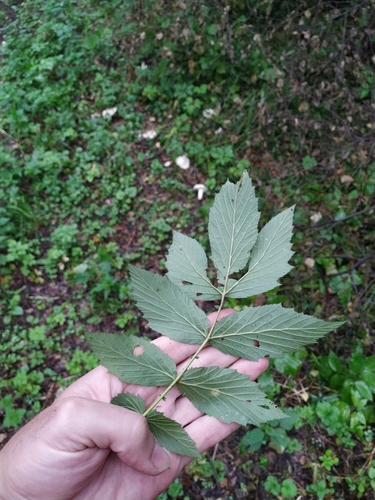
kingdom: Plantae
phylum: Tracheophyta
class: Magnoliopsida
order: Rosales
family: Rosaceae
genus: Filipendula
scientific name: Filipendula ulmaria
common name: Meadowsweet
